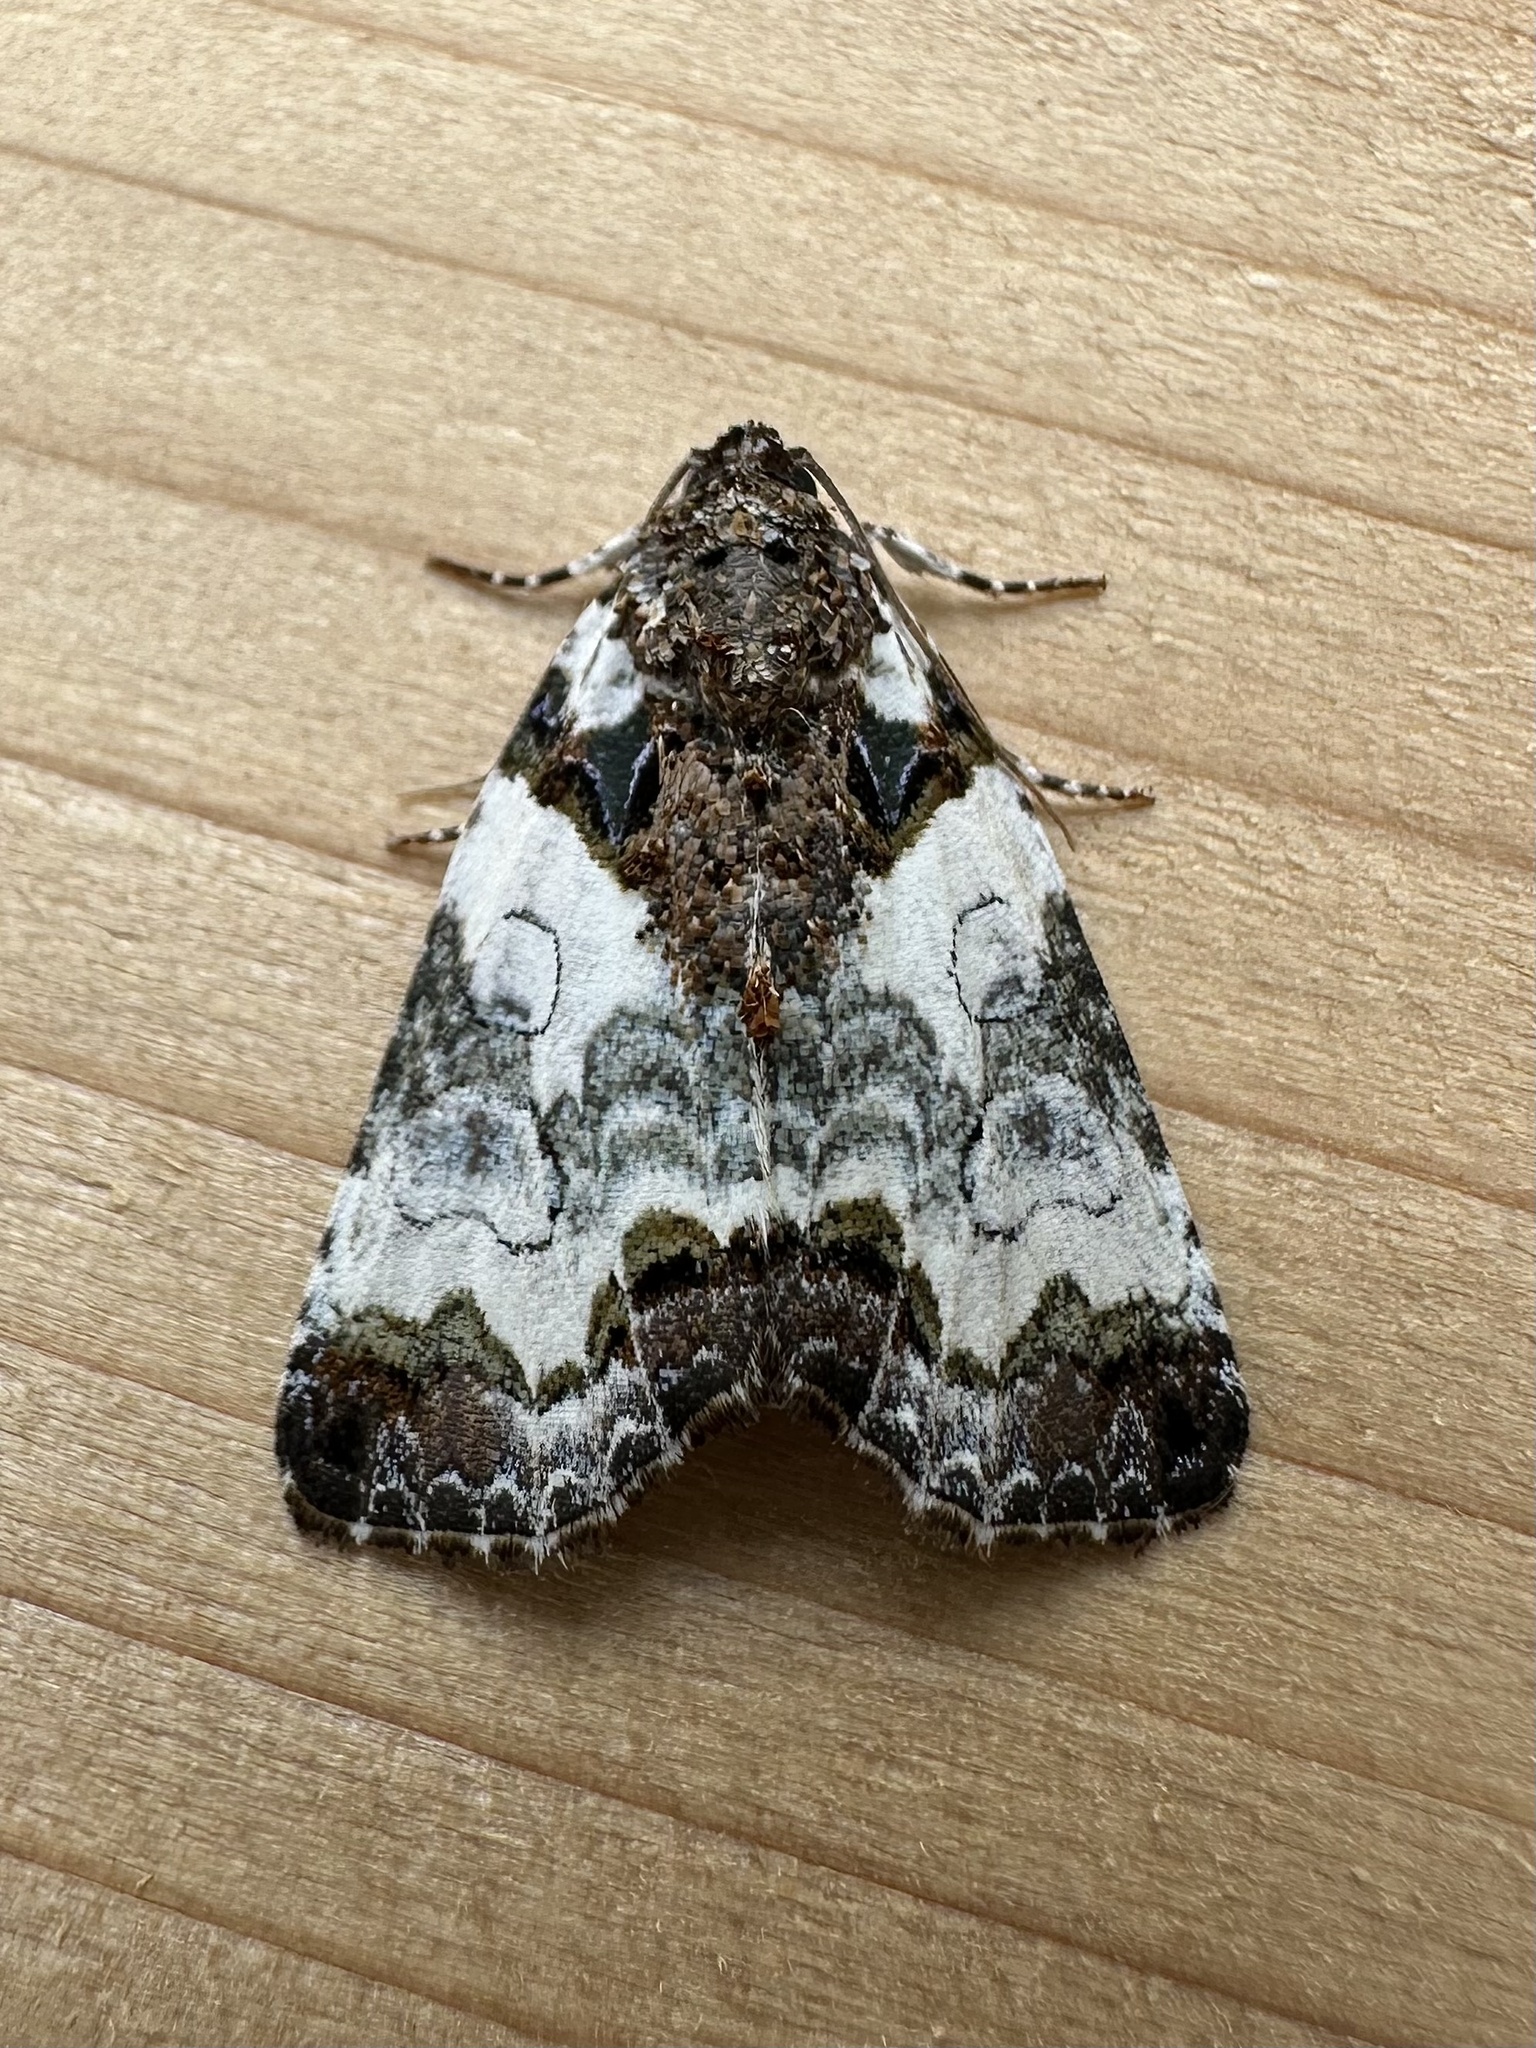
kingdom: Animalia
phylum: Arthropoda
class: Insecta
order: Lepidoptera
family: Noctuidae
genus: Cerma
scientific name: Cerma cerintha
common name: Tufted bird-dropping moth
